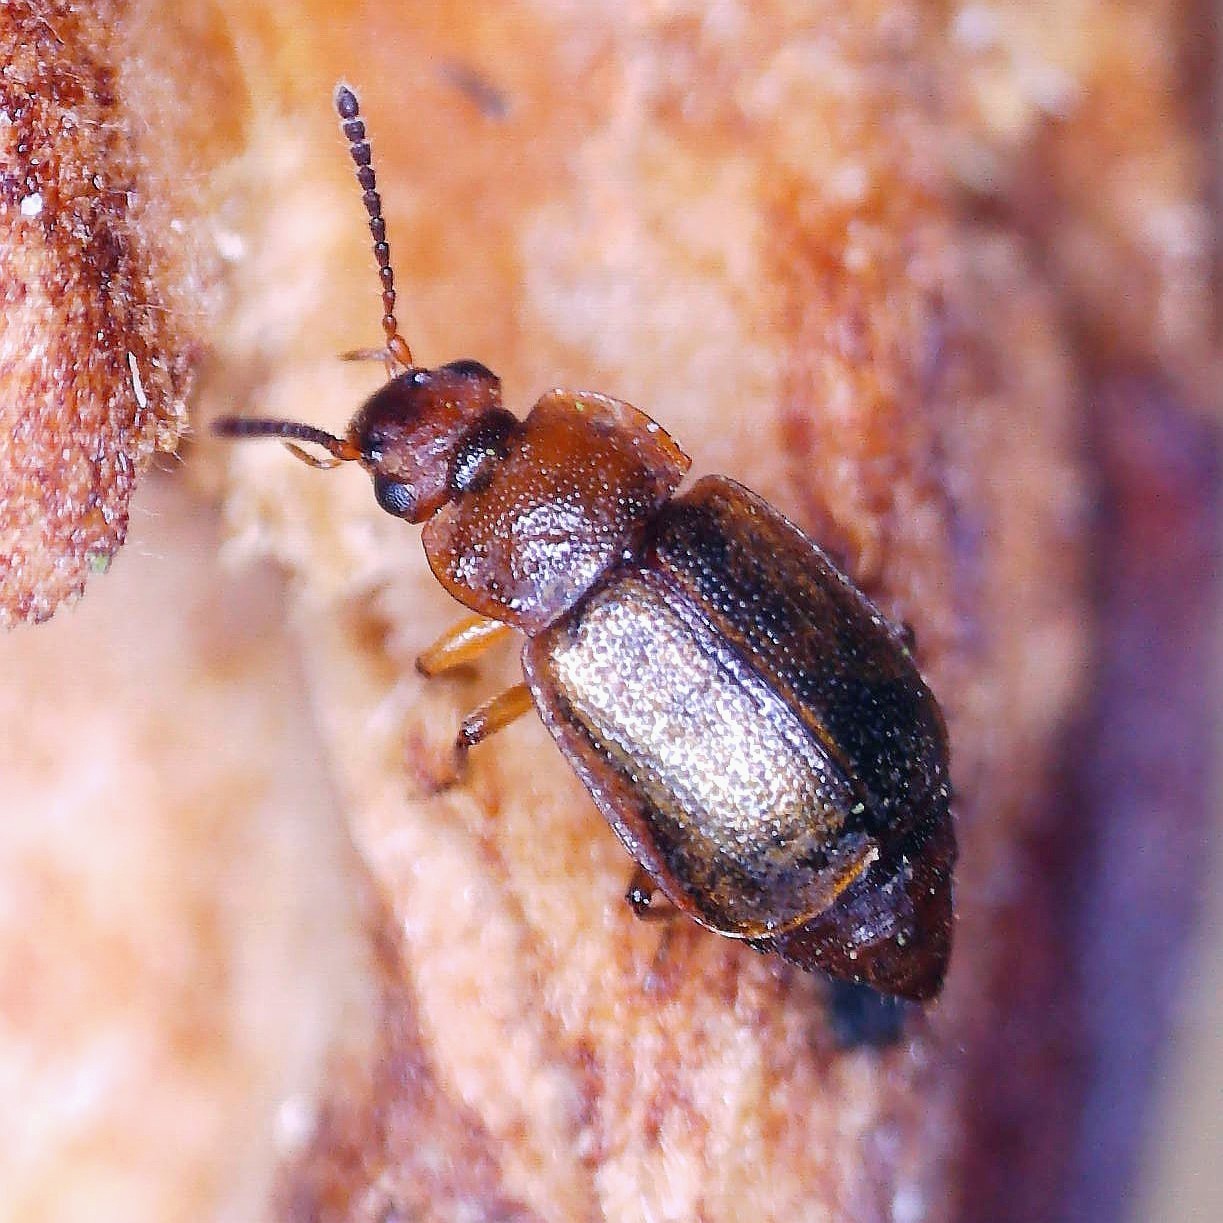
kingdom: Animalia
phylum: Arthropoda
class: Insecta
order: Coleoptera
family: Staphylinidae
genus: Anthobium
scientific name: Anthobium unicolor
